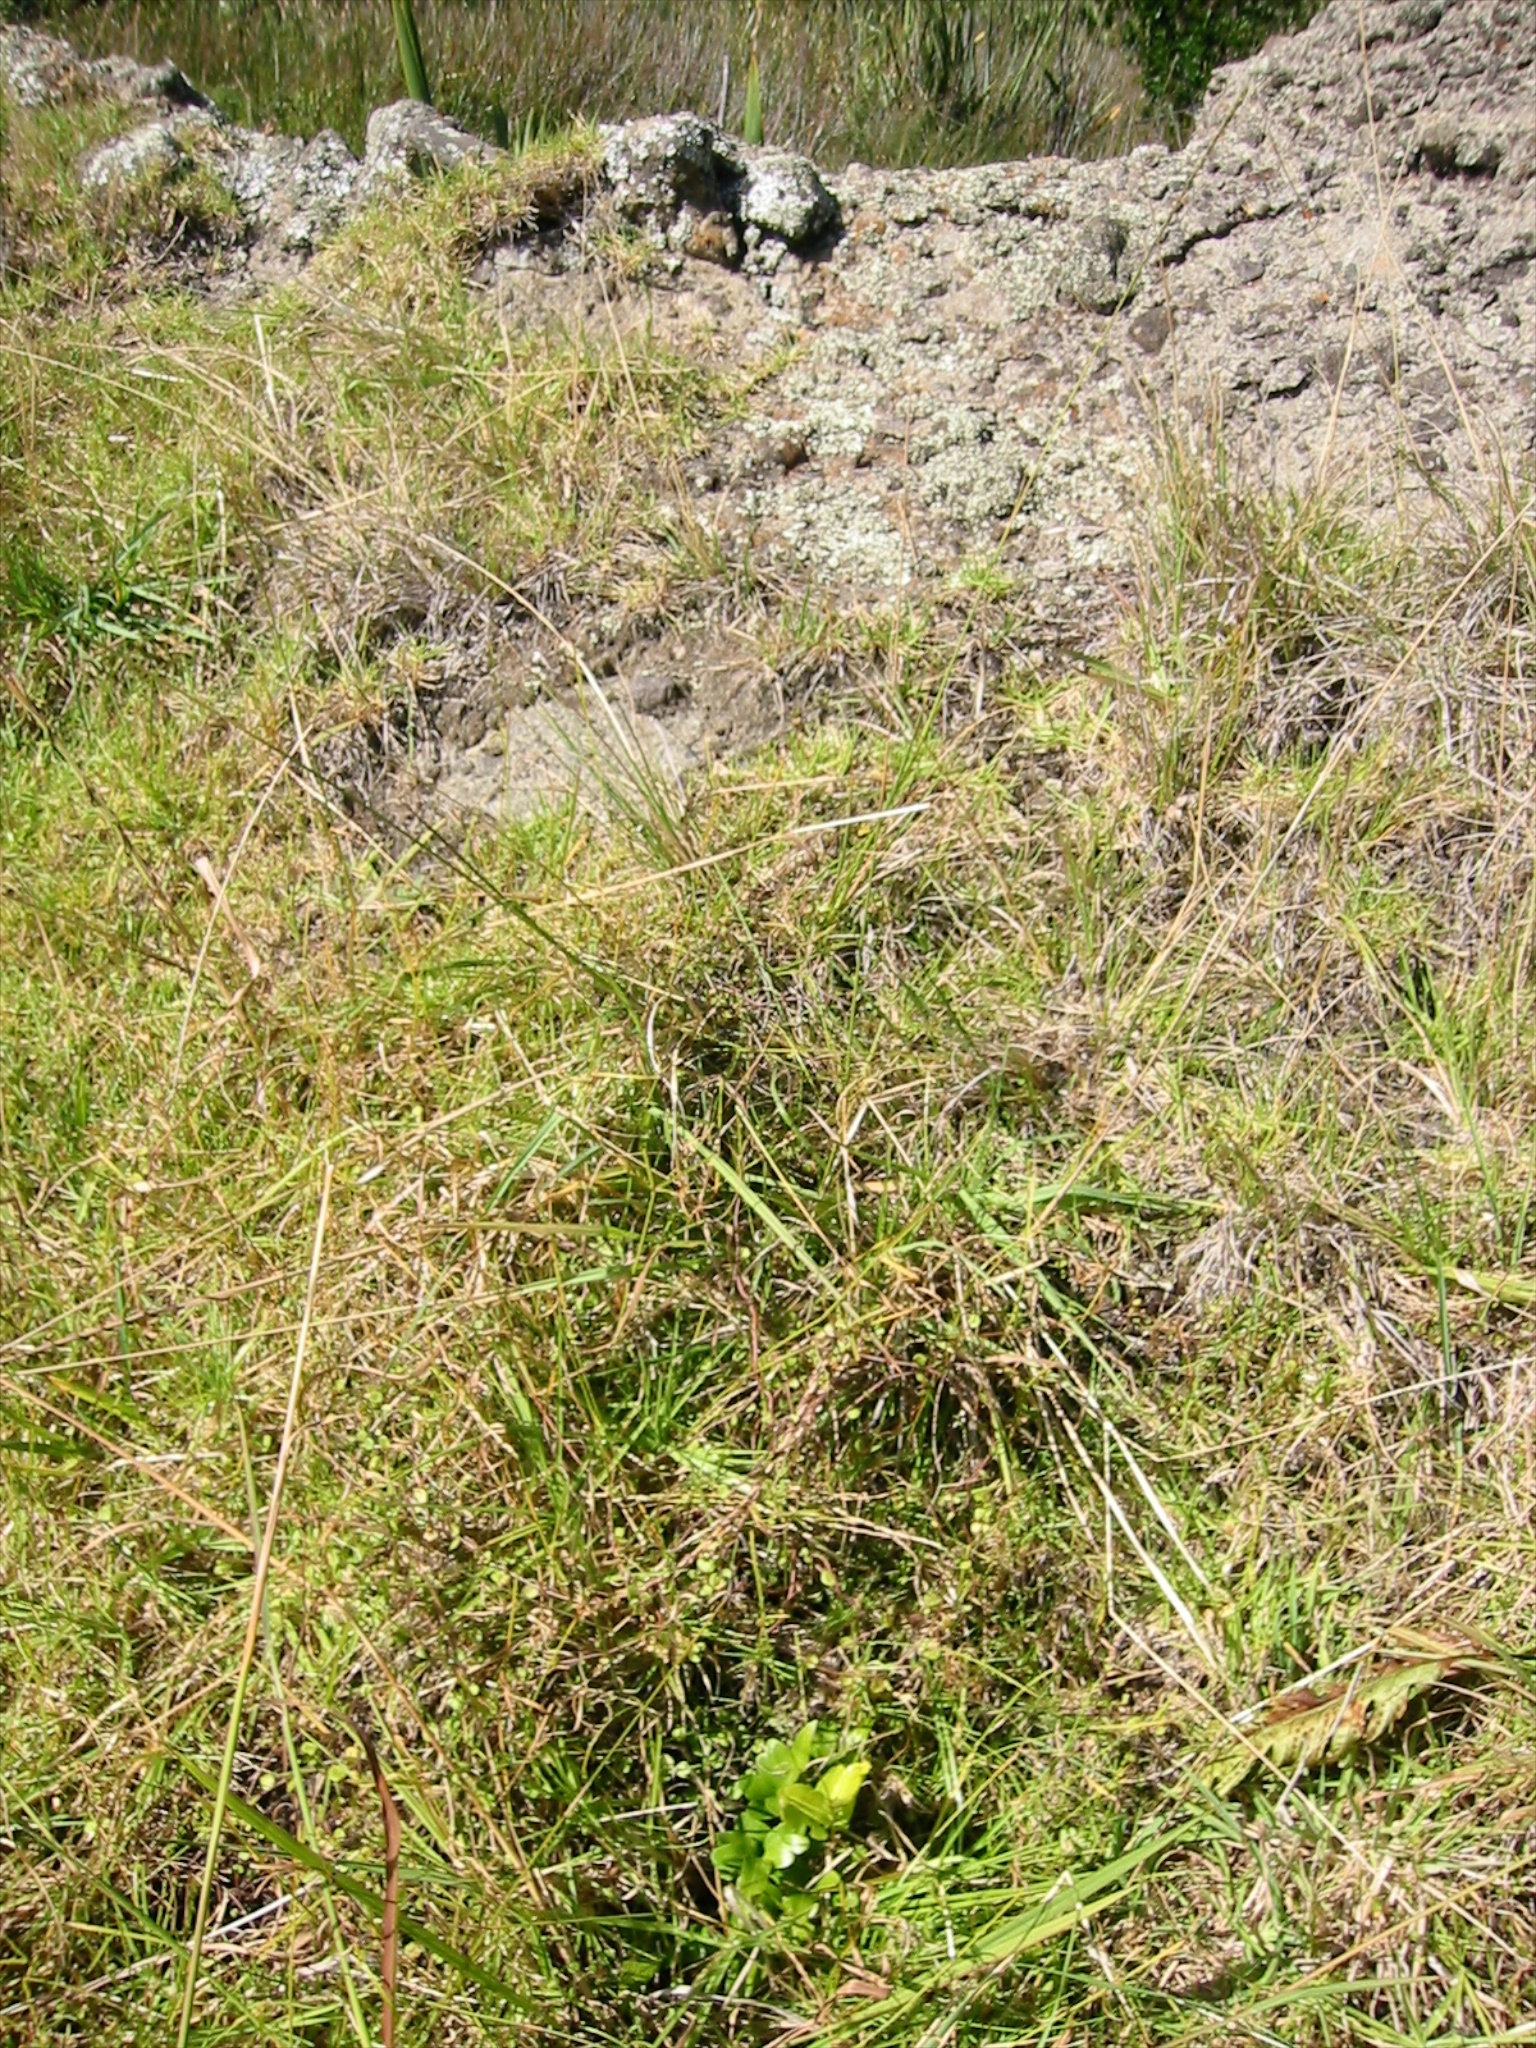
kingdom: Plantae
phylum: Tracheophyta
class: Polypodiopsida
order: Polypodiales
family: Aspleniaceae
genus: Asplenium
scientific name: Asplenium oblongifolium
